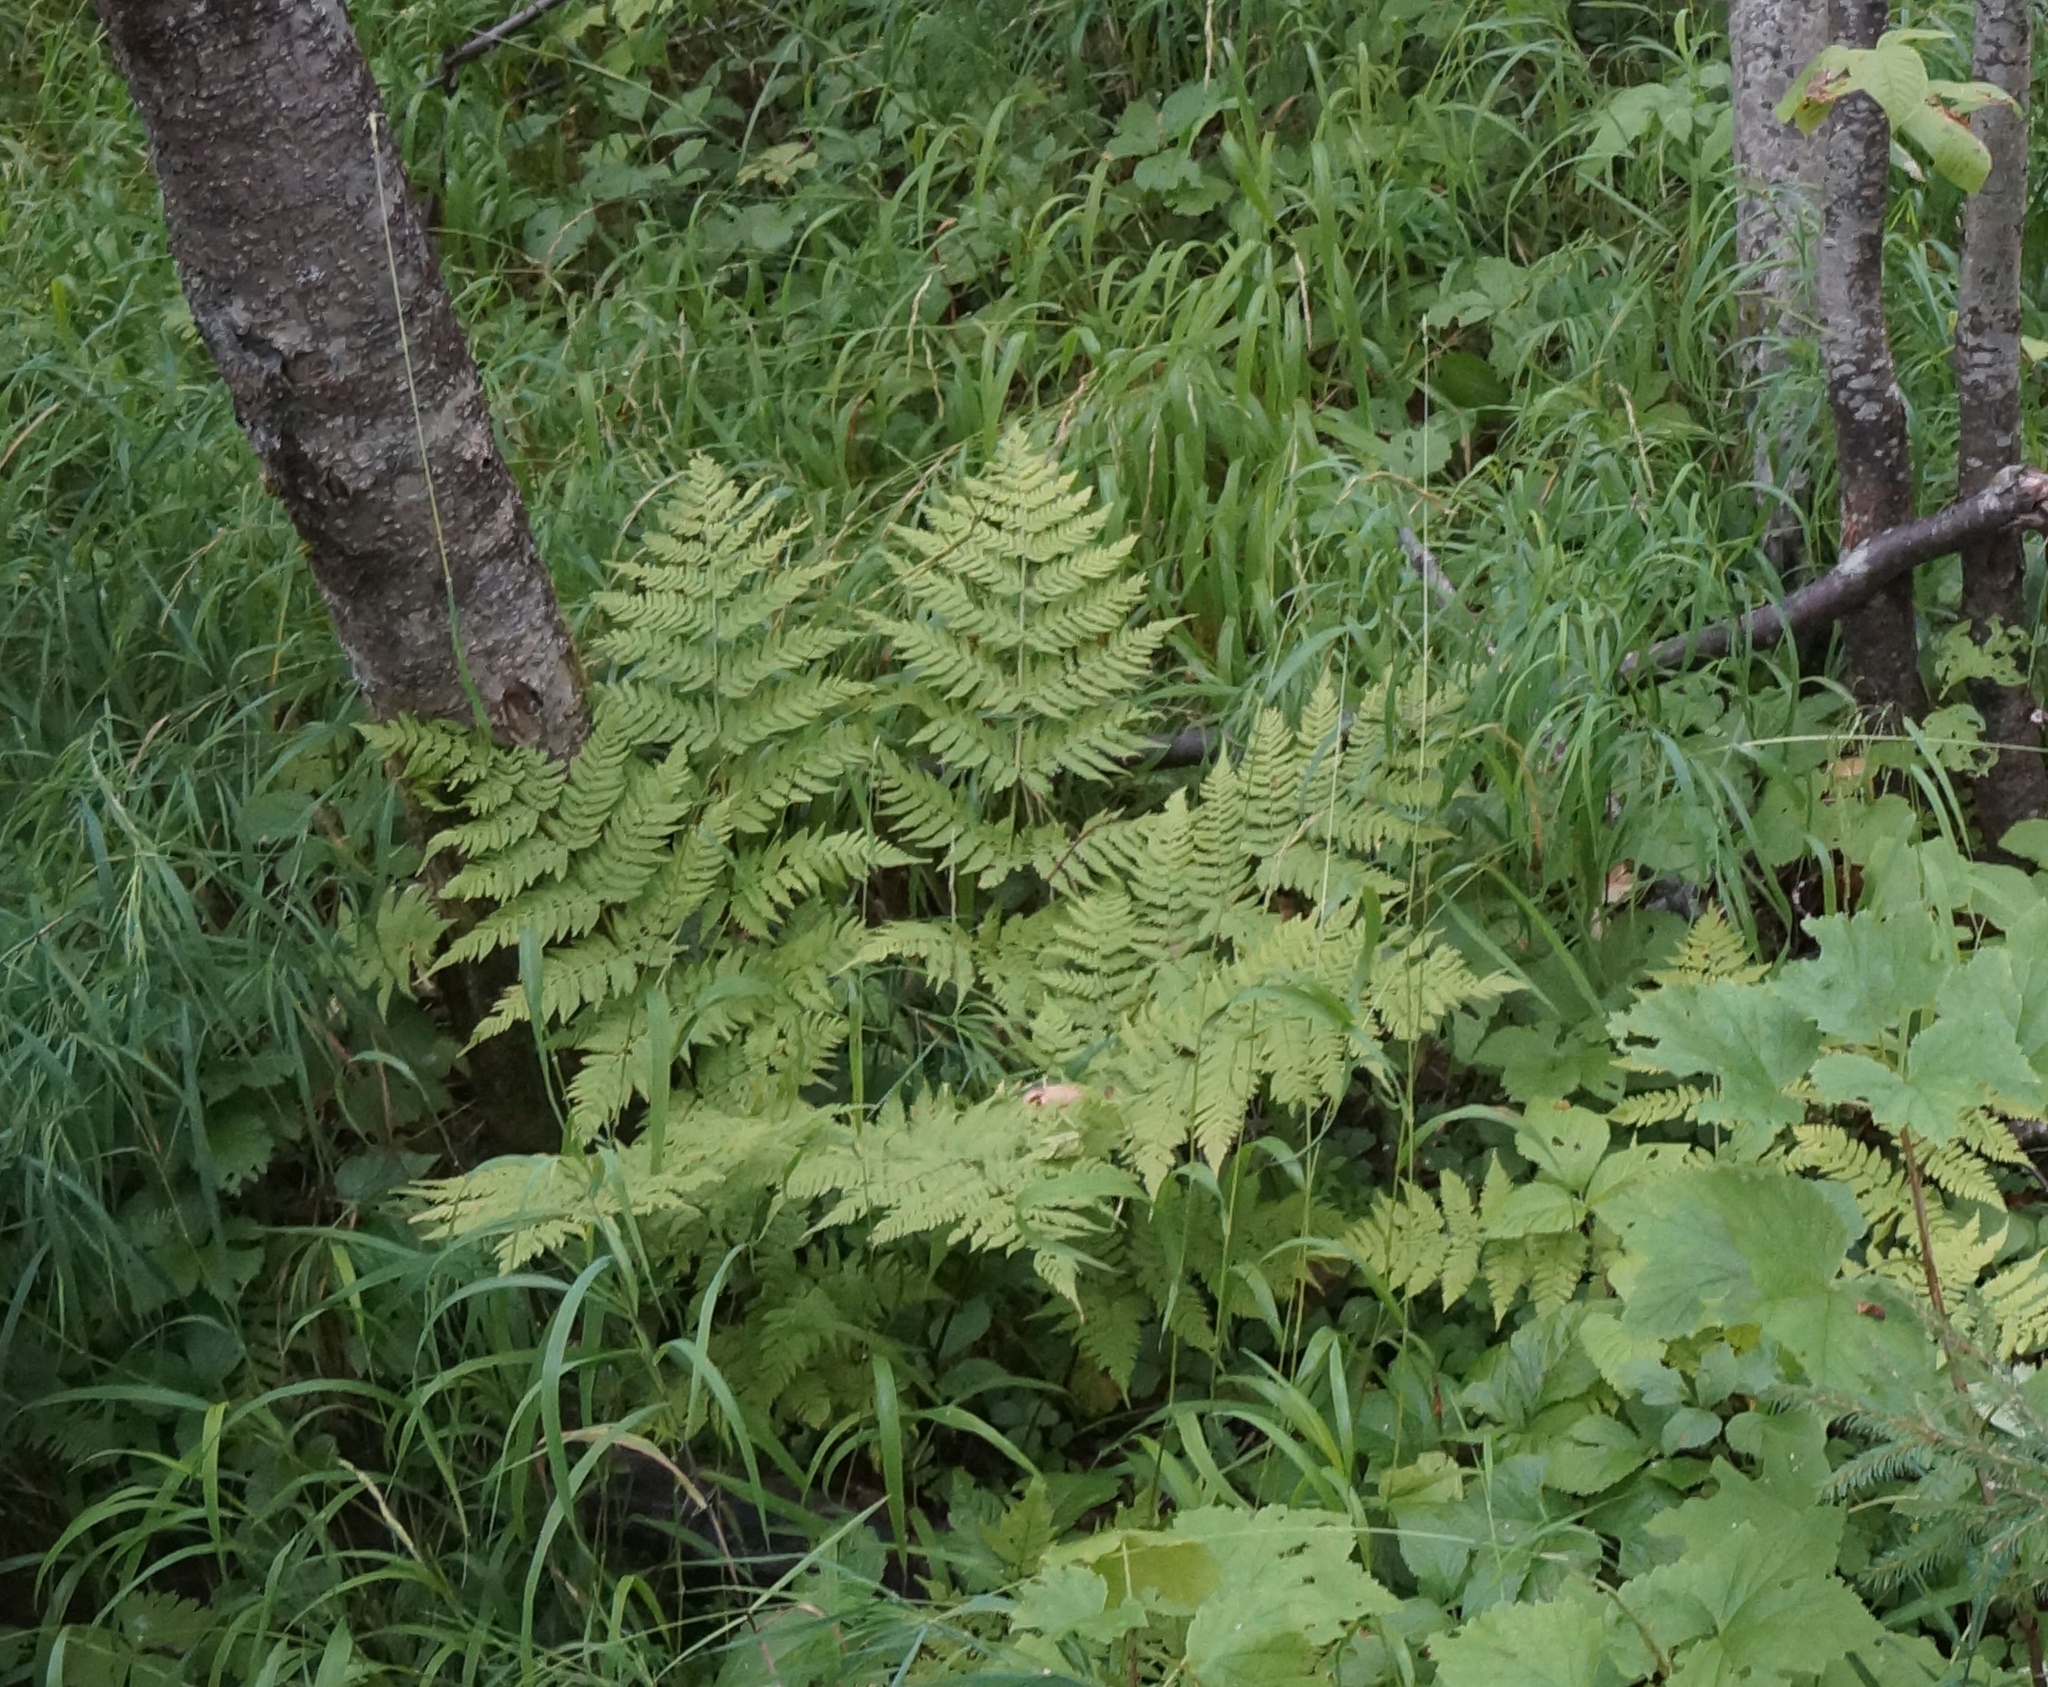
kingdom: Plantae
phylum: Tracheophyta
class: Polypodiopsida
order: Polypodiales
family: Dryopteridaceae
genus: Dryopteris
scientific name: Dryopteris expansa
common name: Northern buckler fern
